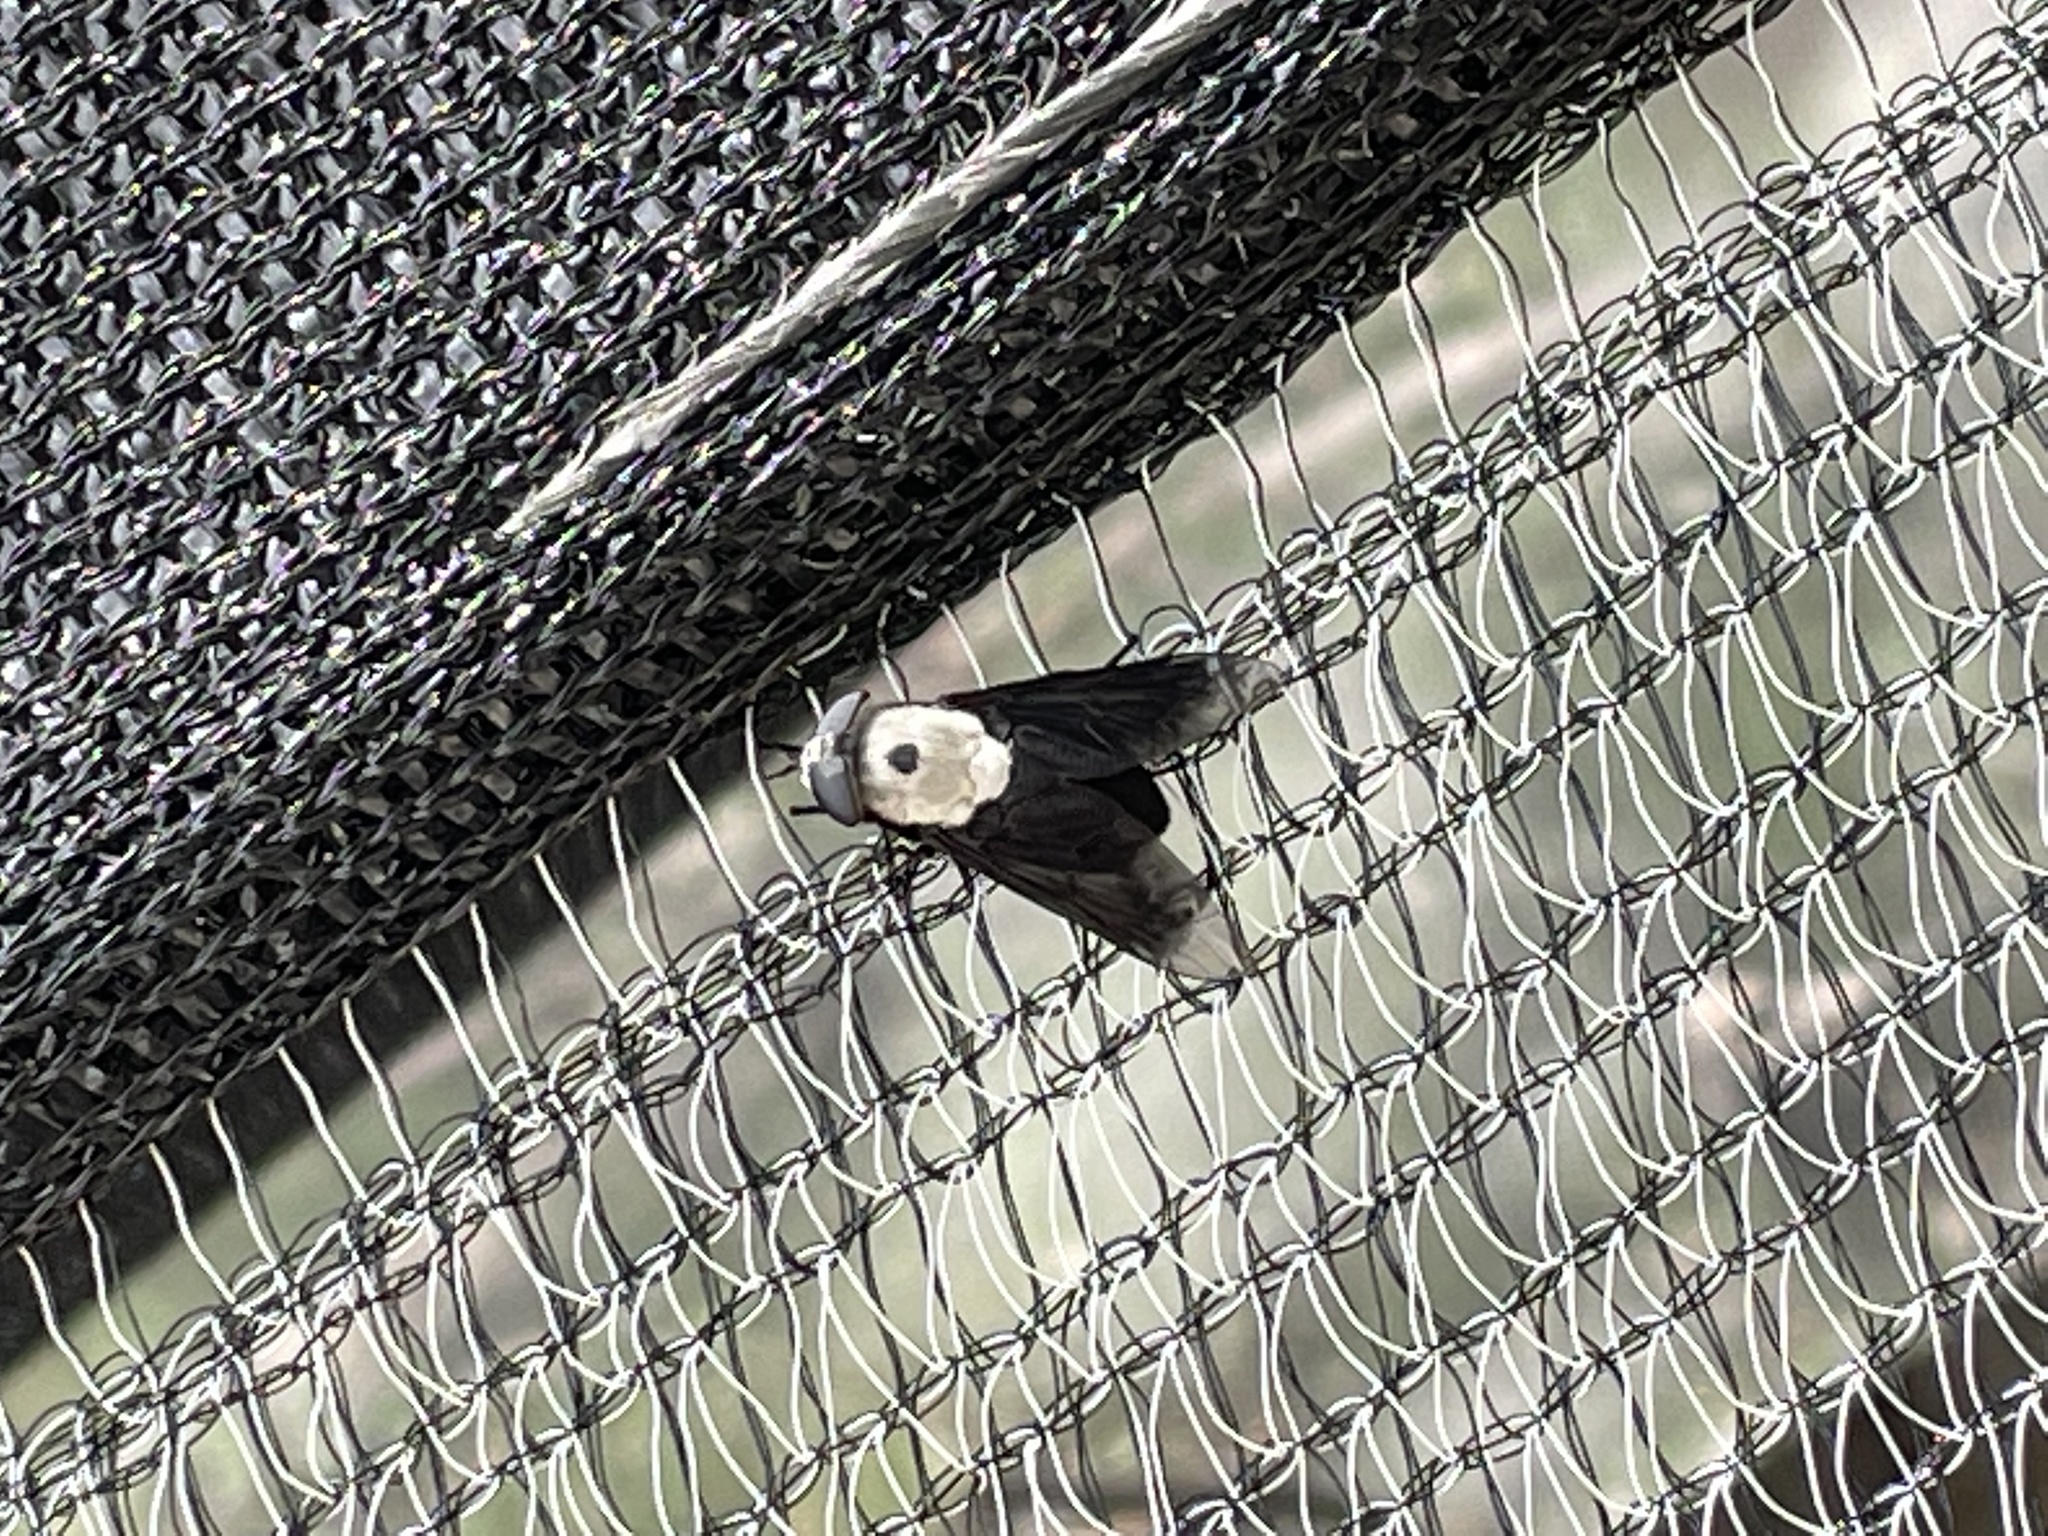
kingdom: Animalia
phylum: Arthropoda
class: Insecta
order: Diptera
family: Tabanidae
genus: Tabanus
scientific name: Tabanus biguttatus
